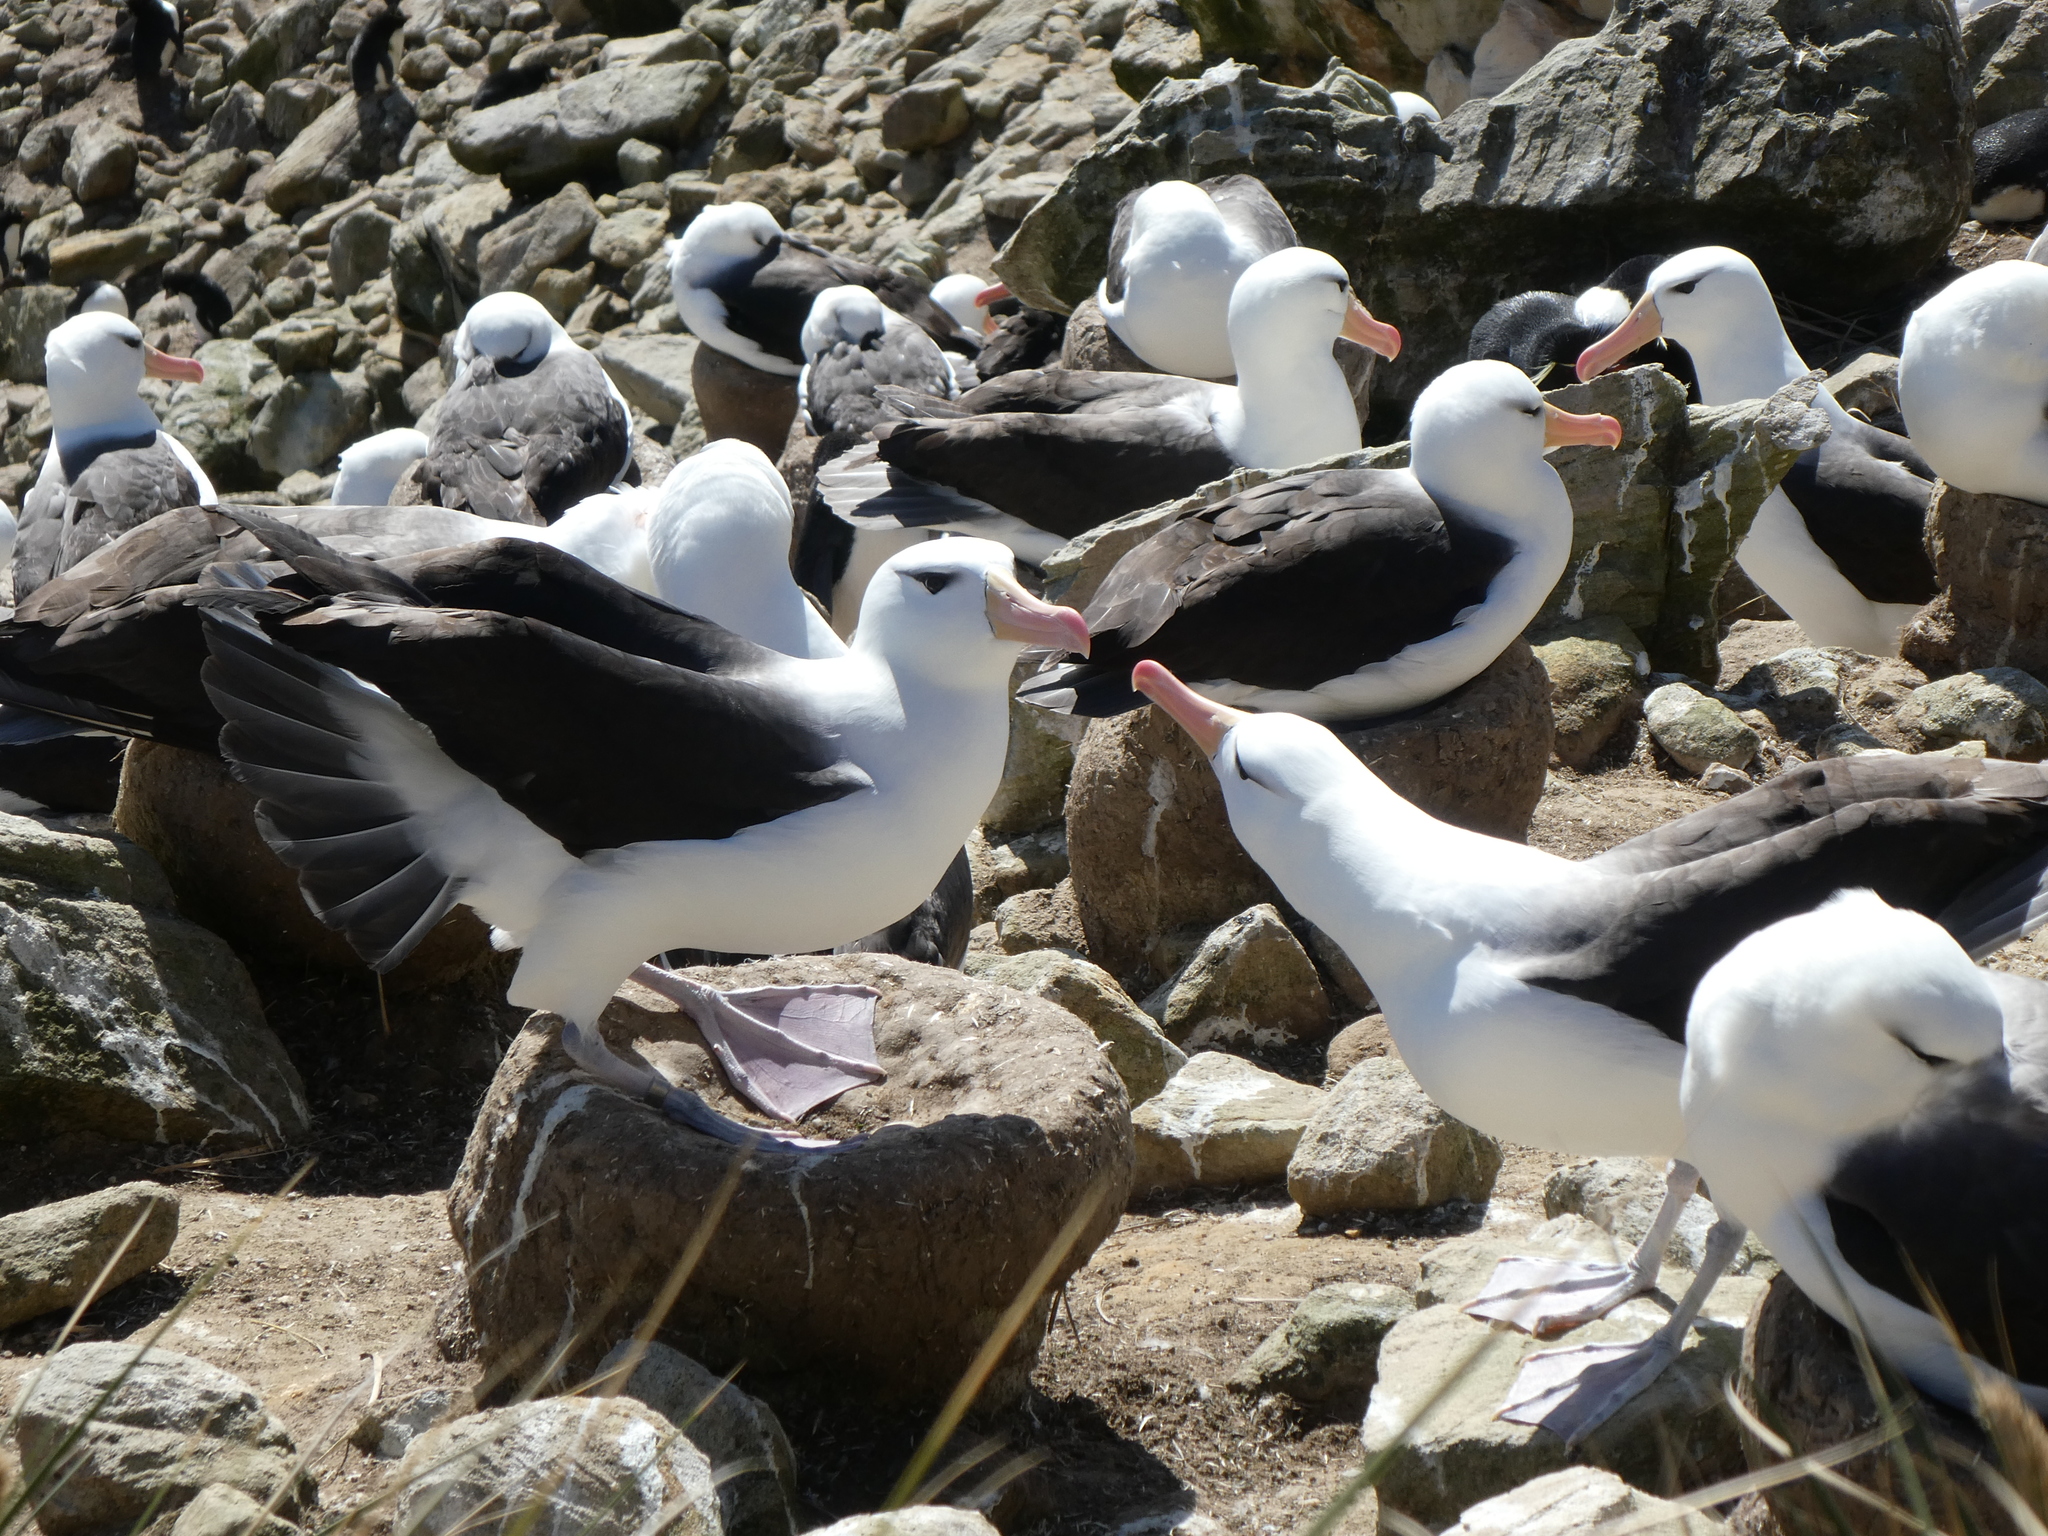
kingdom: Animalia
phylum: Chordata
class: Aves
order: Procellariiformes
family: Diomedeidae
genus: Thalassarche
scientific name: Thalassarche melanophris
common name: Black-browed albatross
